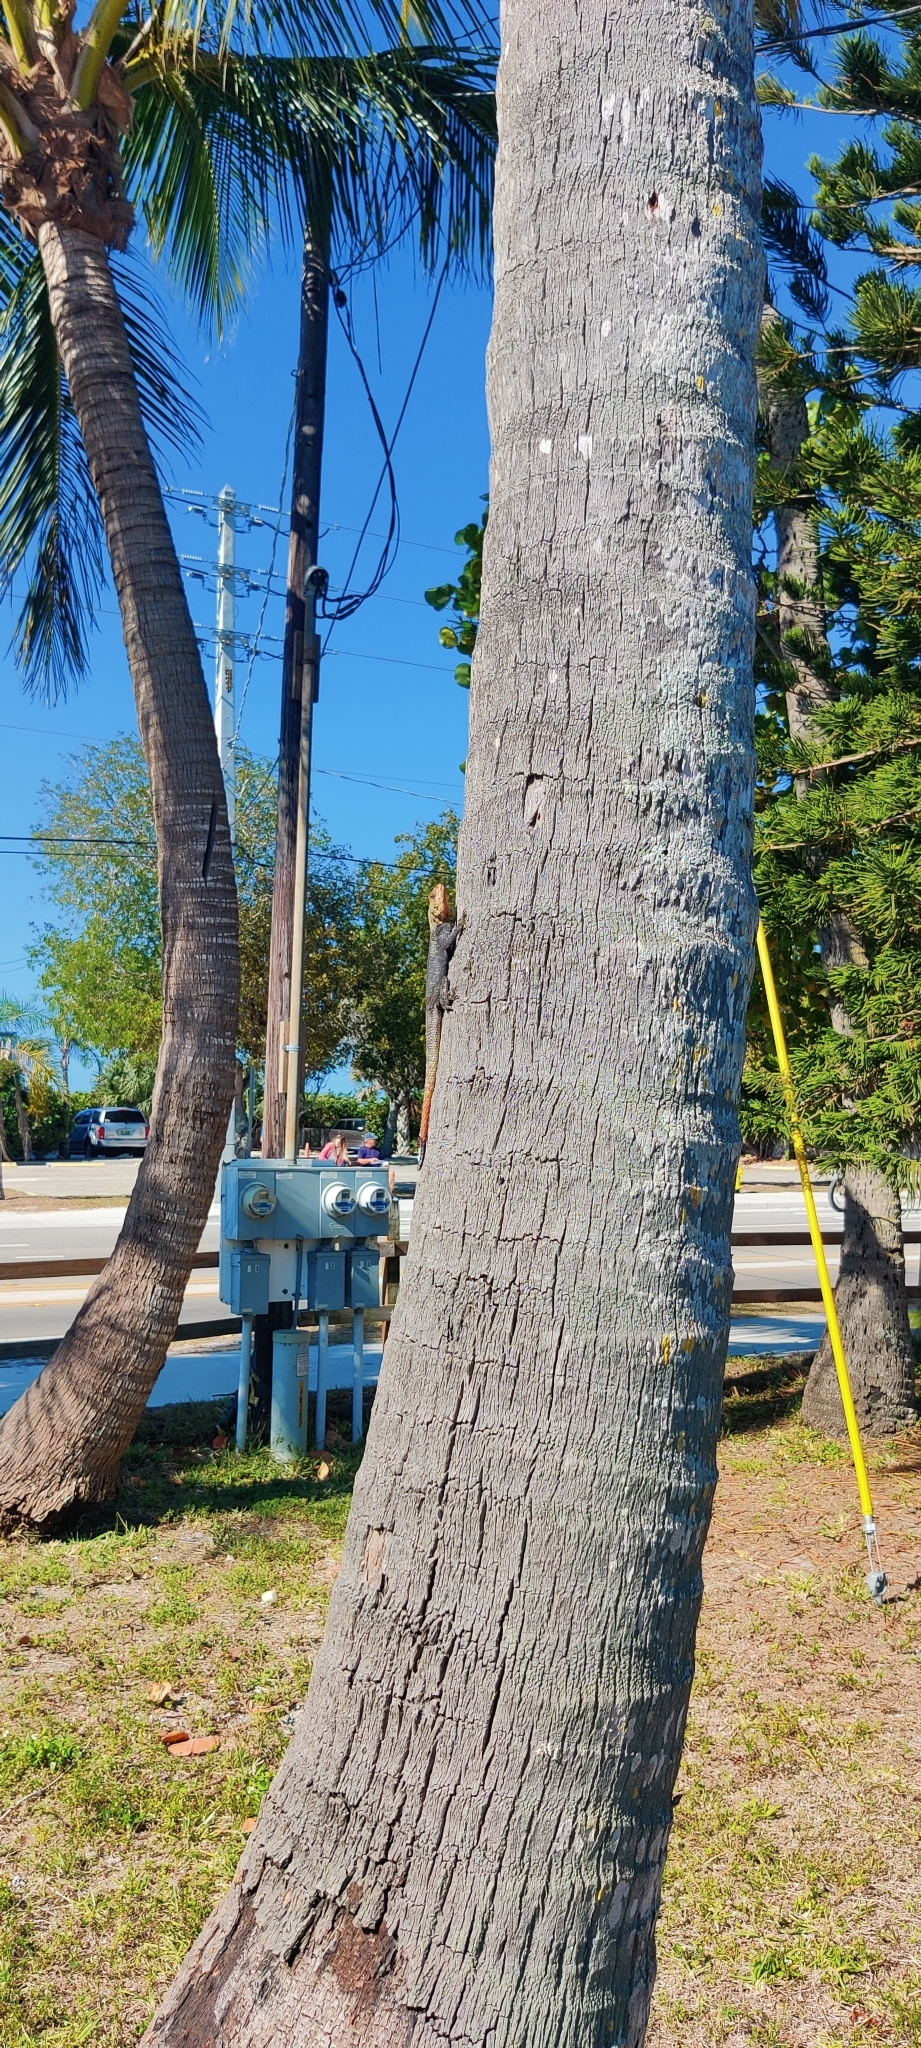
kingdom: Animalia
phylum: Chordata
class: Squamata
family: Agamidae
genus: Agama
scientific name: Agama picticauda
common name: Red-headed agama
